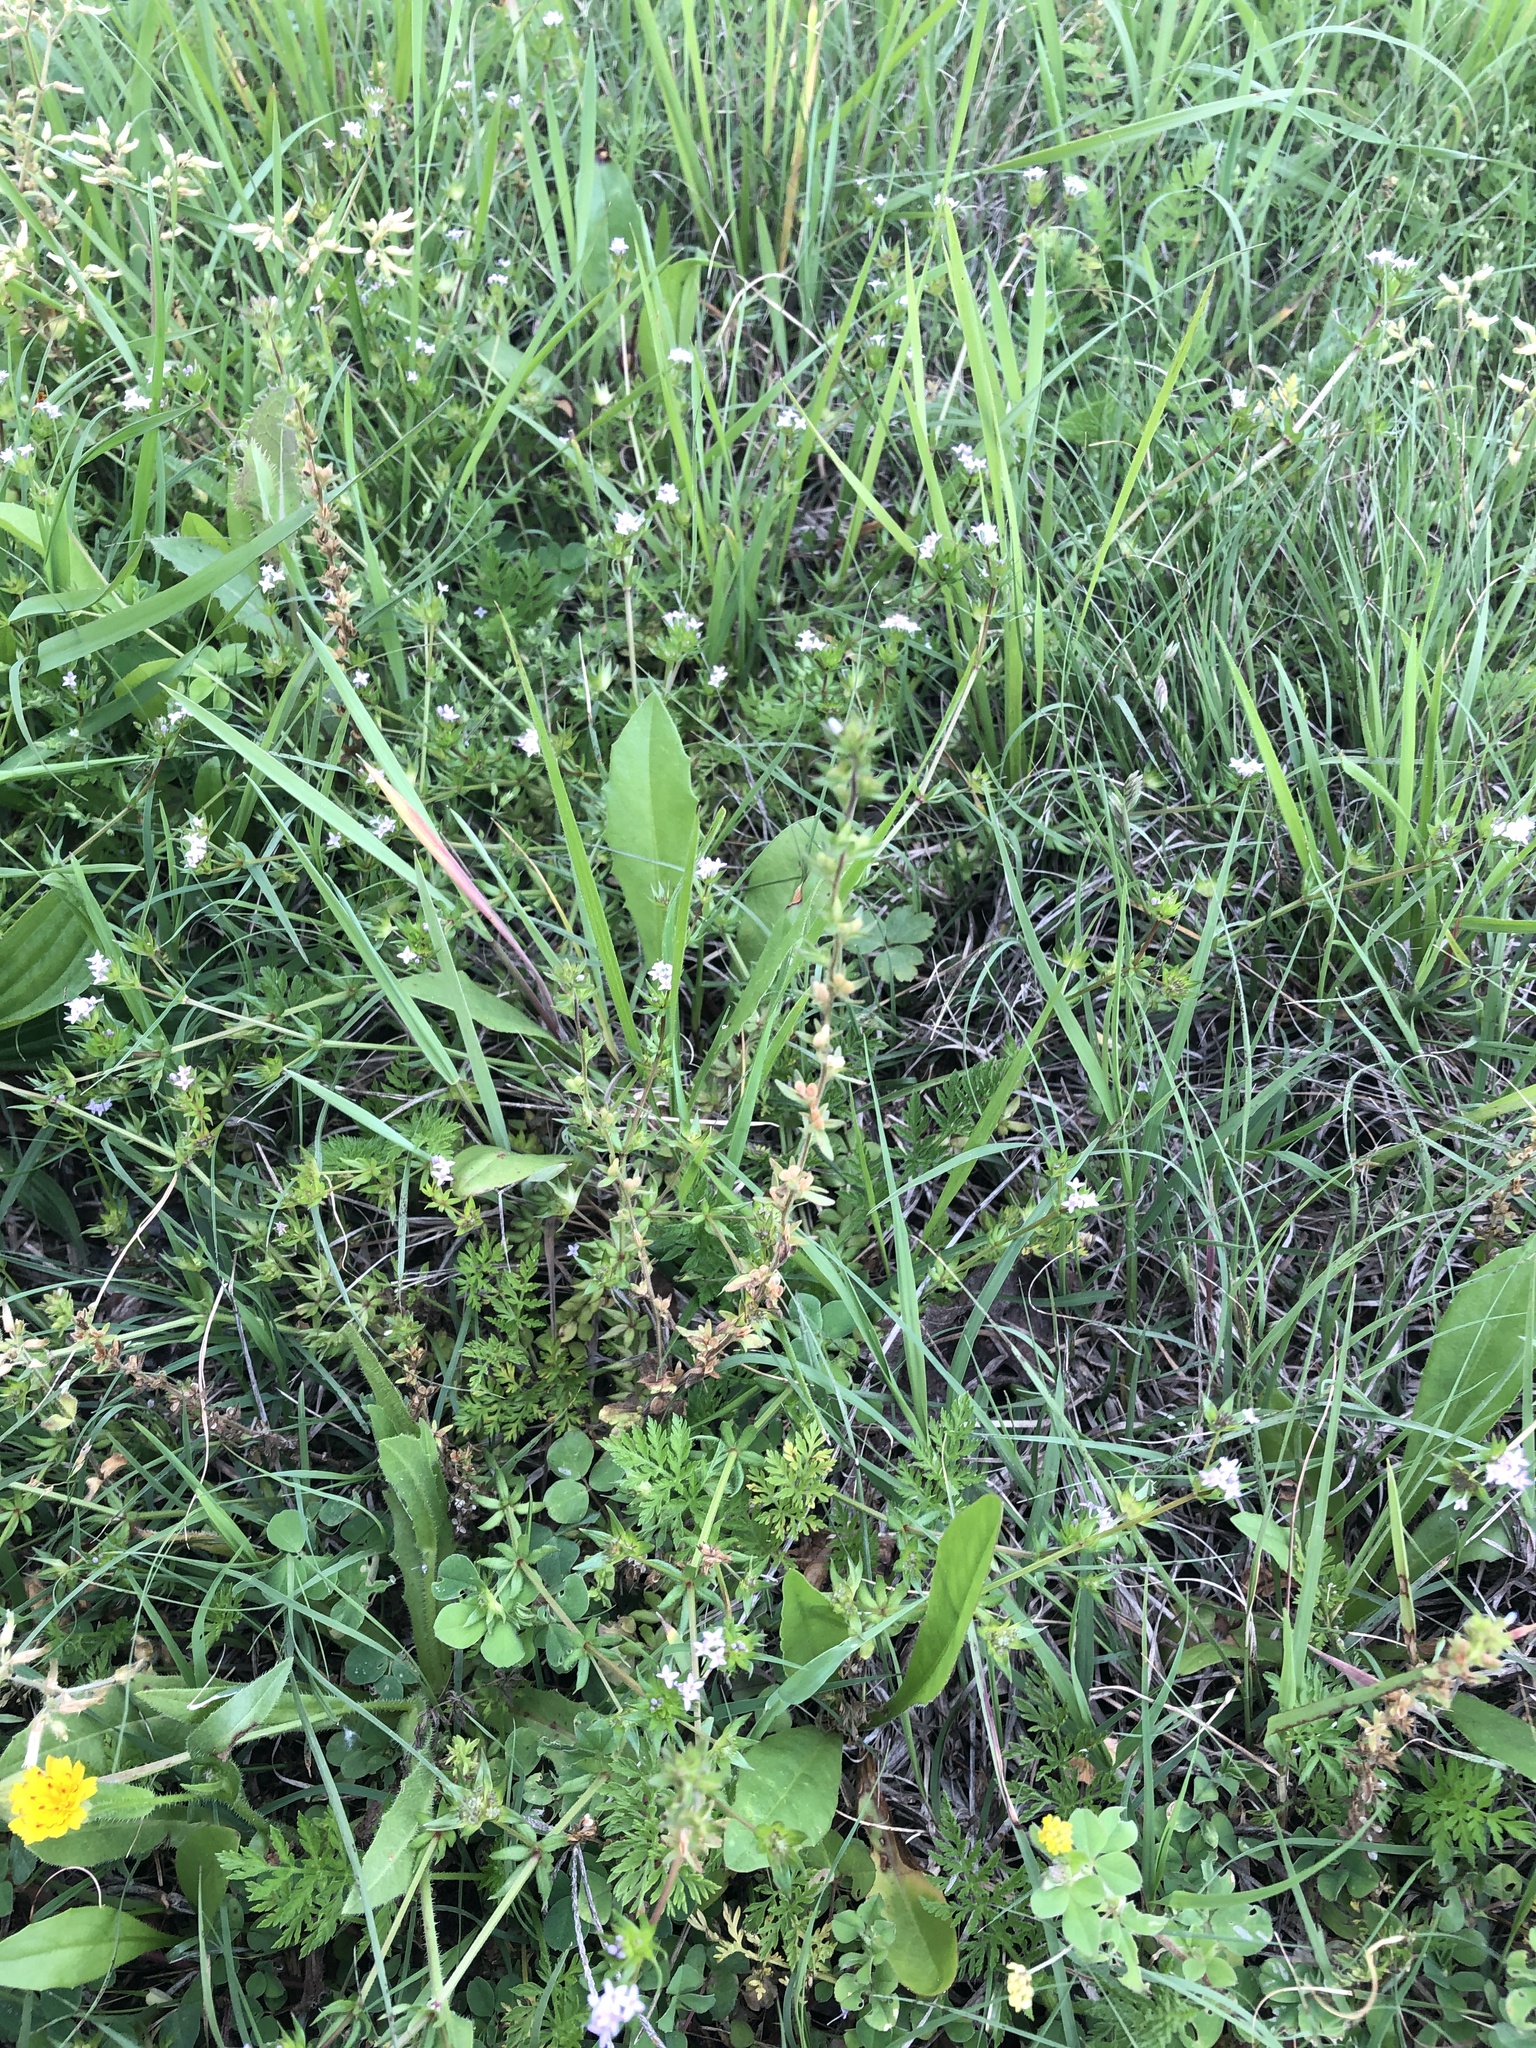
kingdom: Plantae
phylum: Tracheophyta
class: Magnoliopsida
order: Lamiales
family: Plantaginaceae
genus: Veronica
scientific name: Veronica arvensis
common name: Corn speedwell
